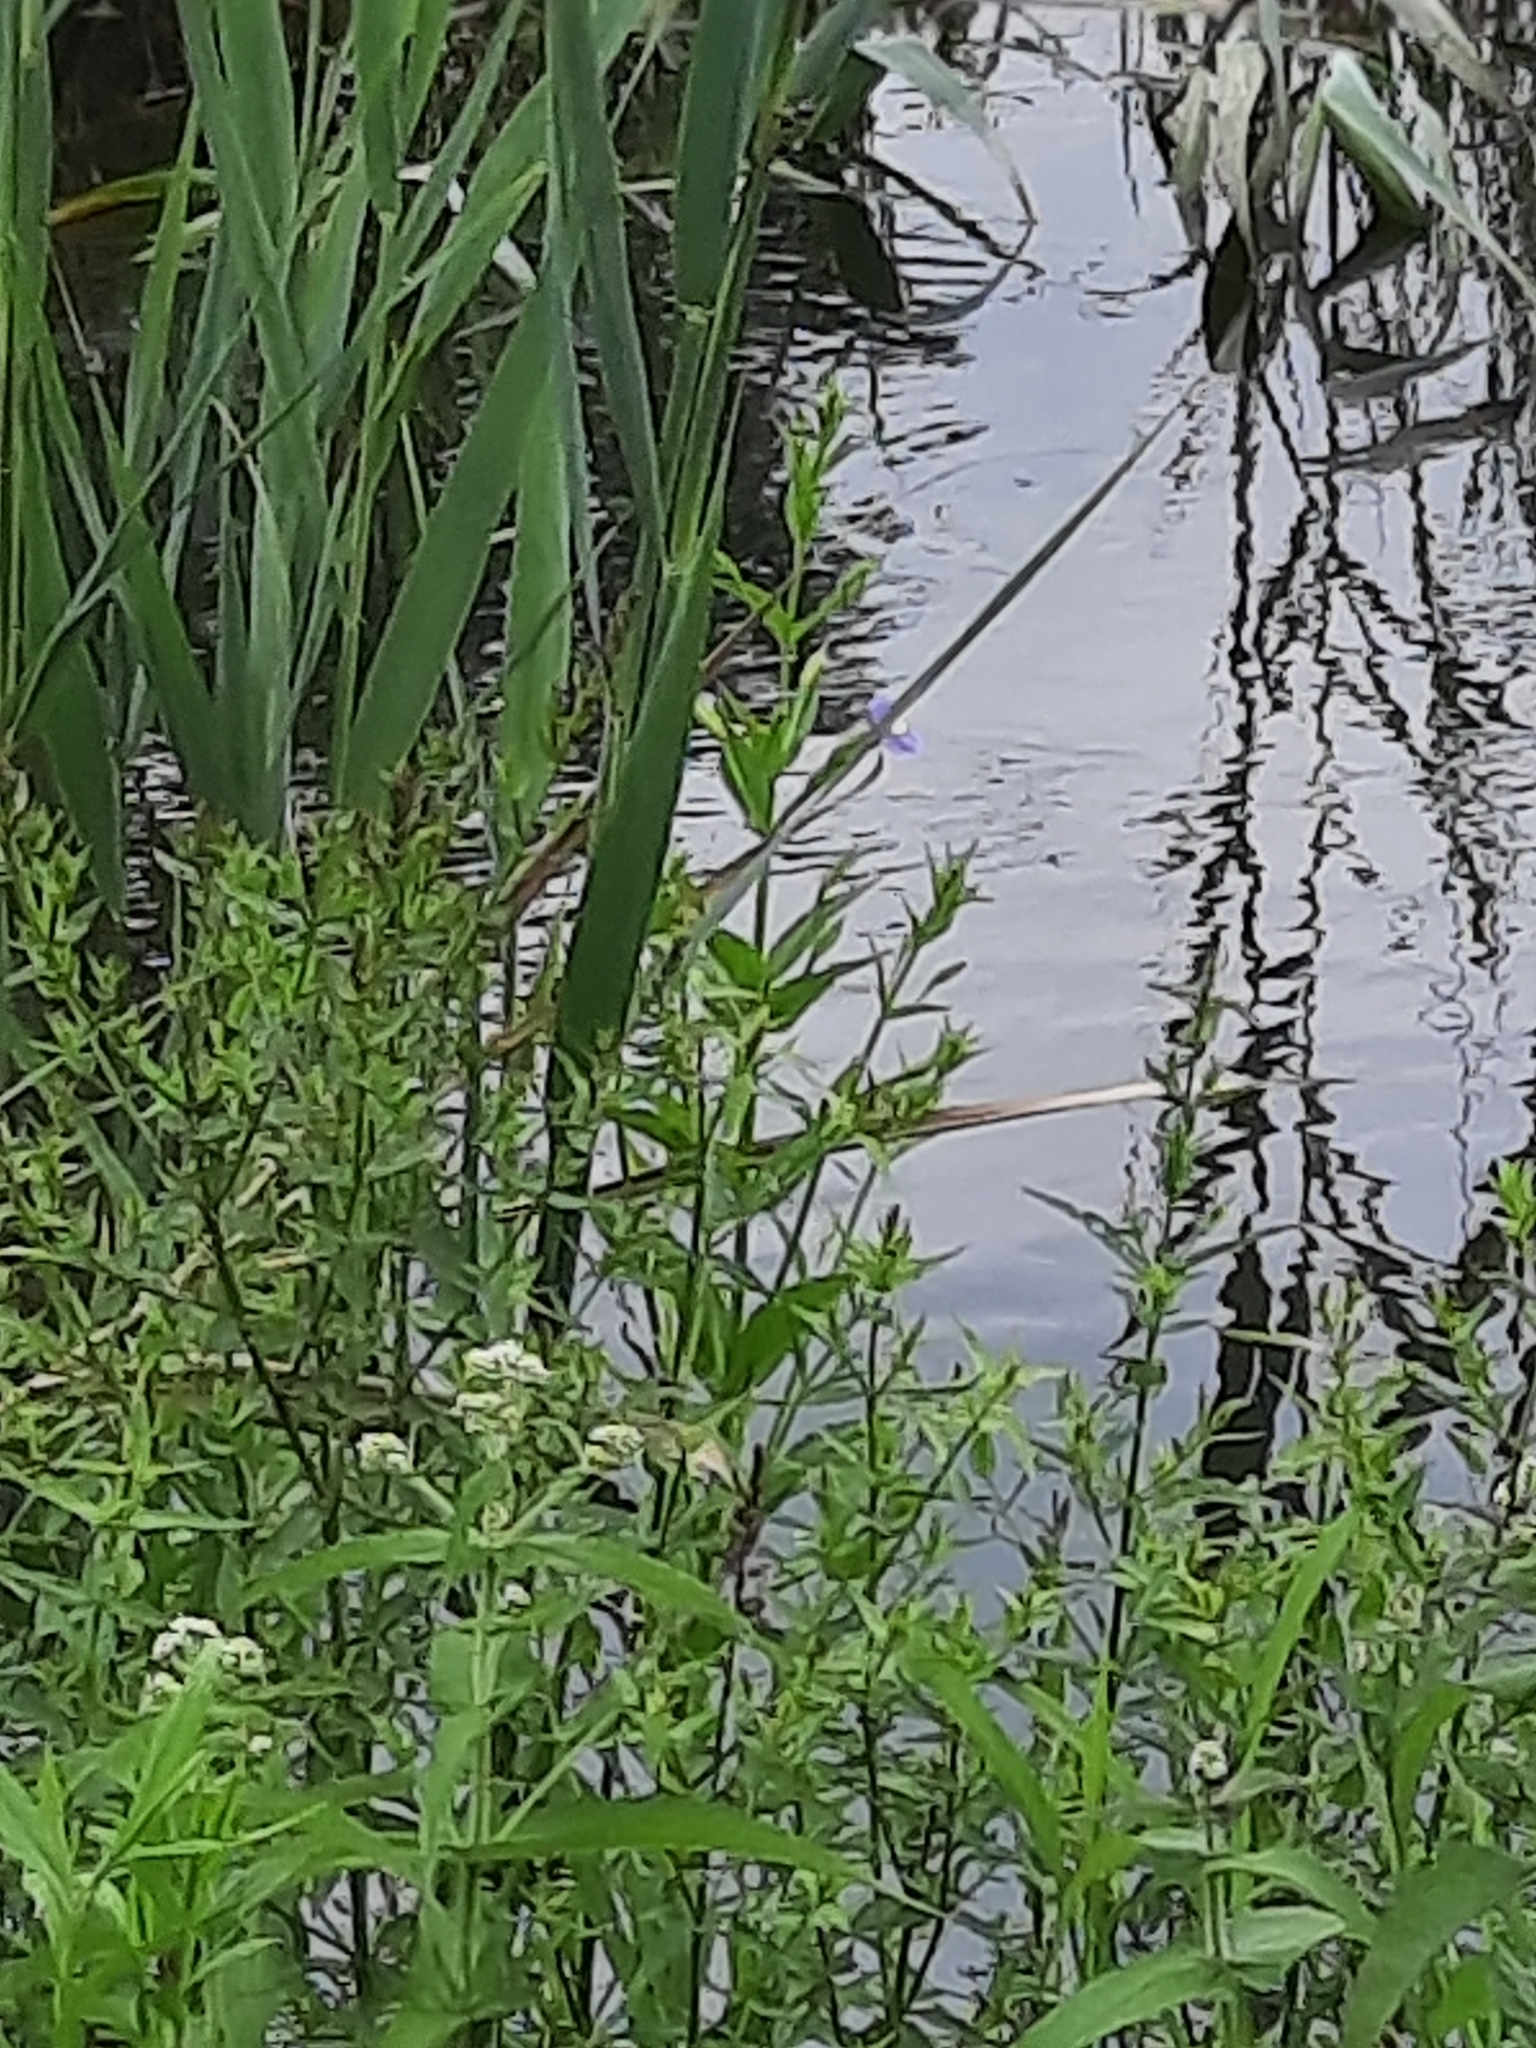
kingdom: Plantae
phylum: Tracheophyta
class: Magnoliopsida
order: Lamiales
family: Phrymaceae
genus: Mimulus
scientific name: Mimulus ringens
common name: Allegheny monkeyflower
